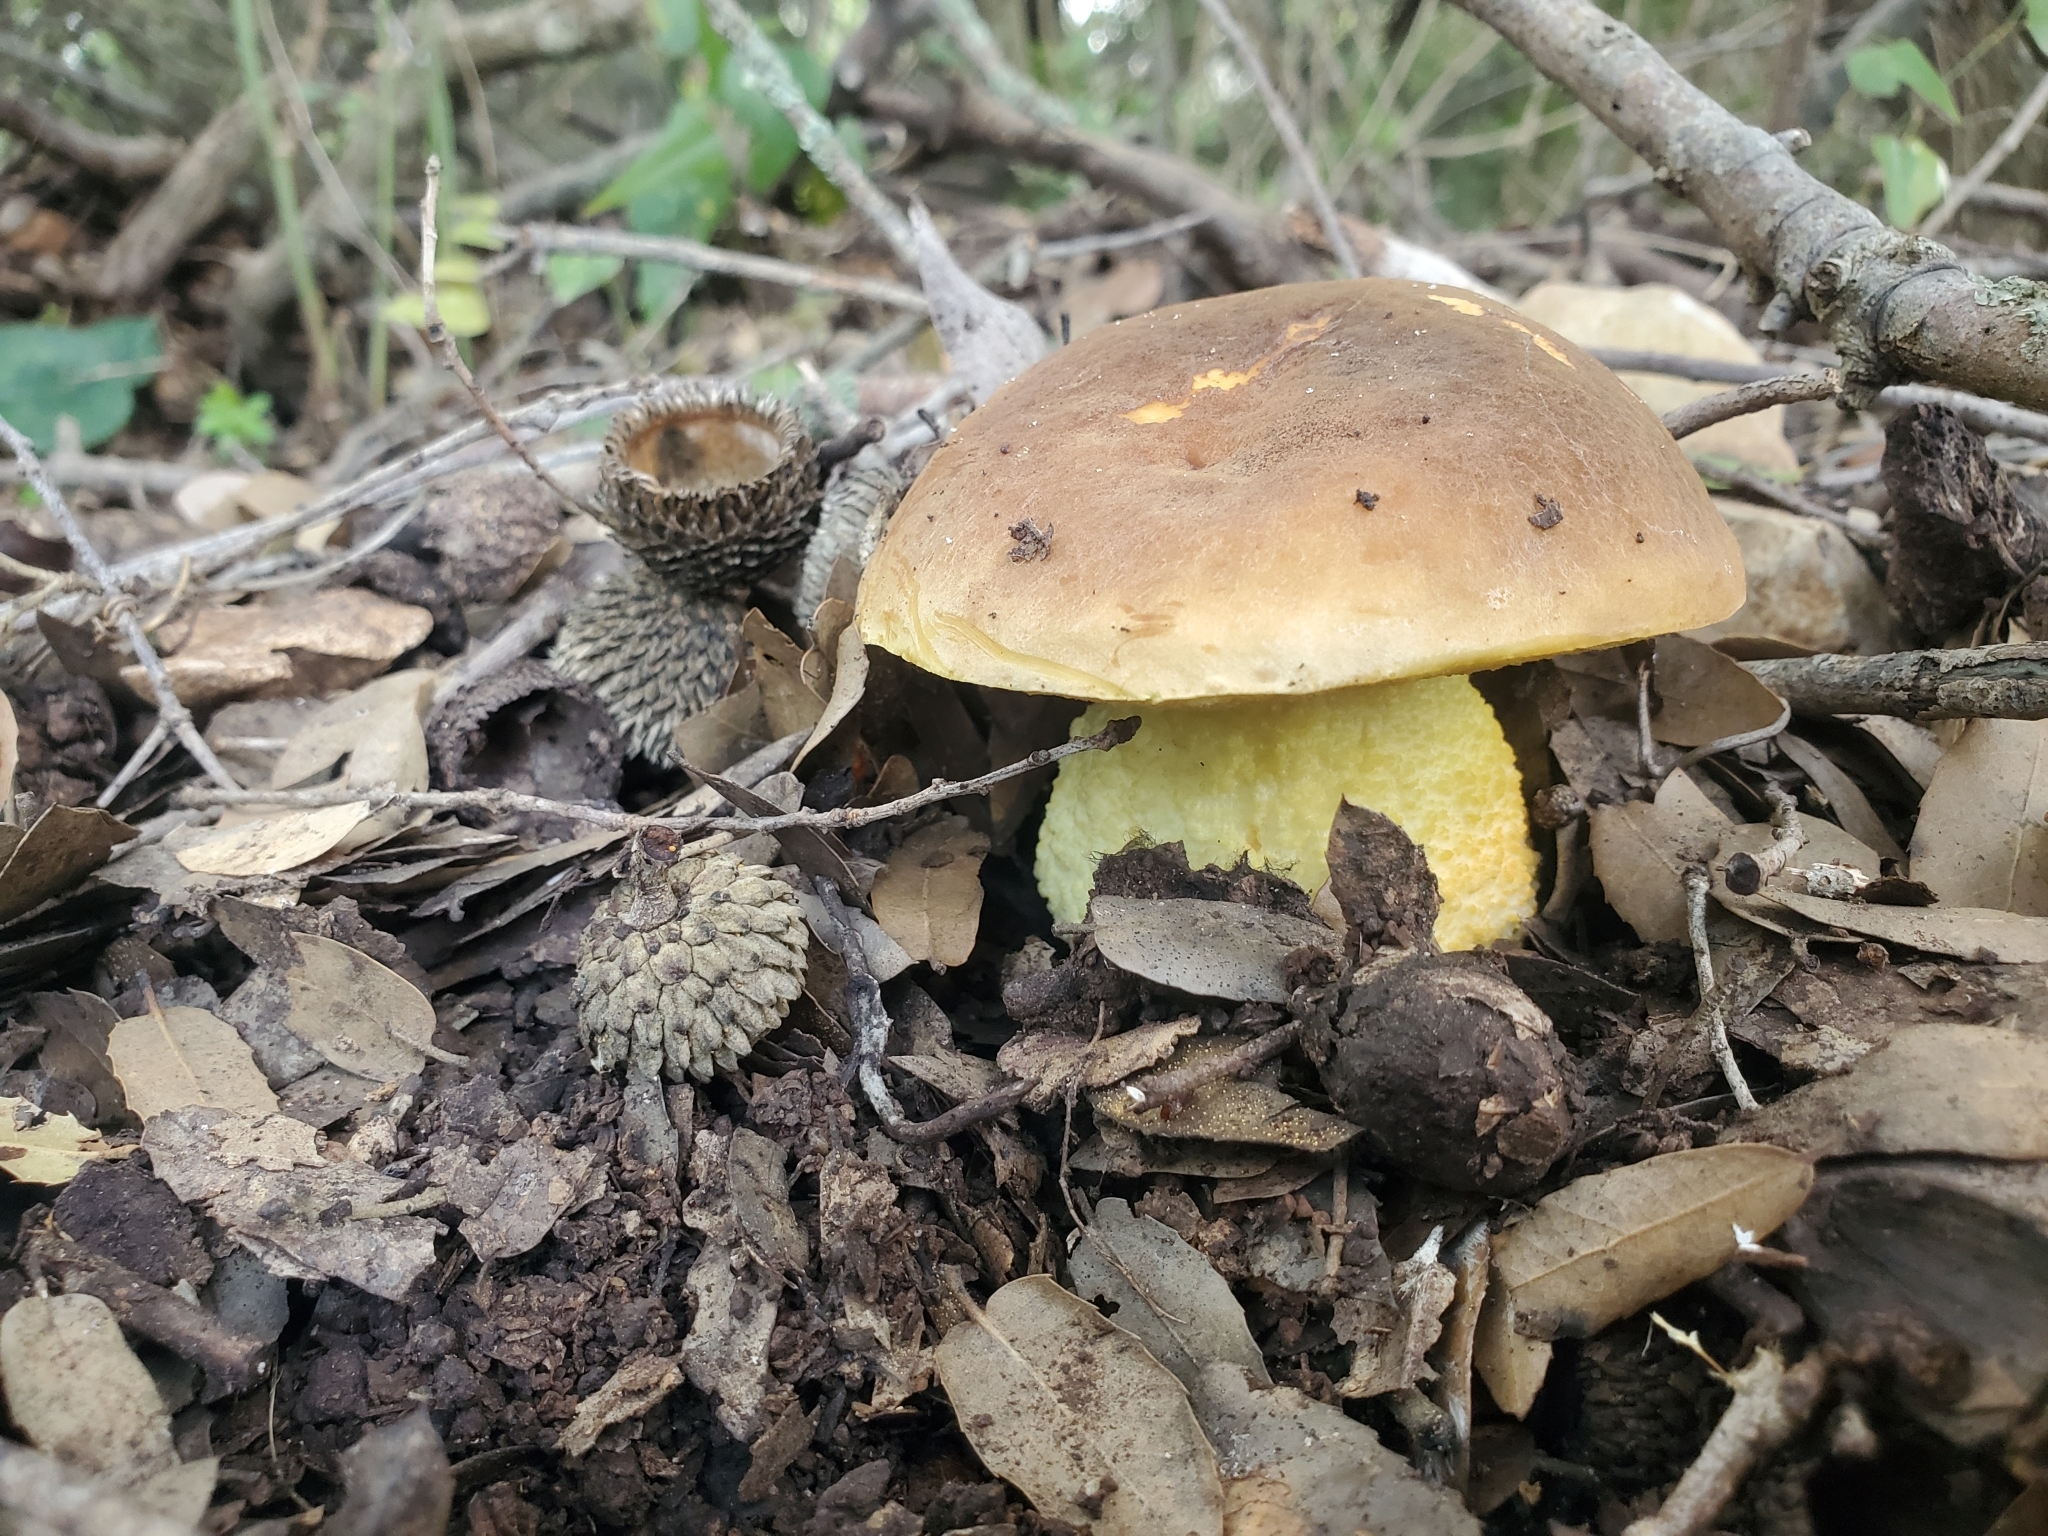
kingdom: Fungi
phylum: Basidiomycota
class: Agaricomycetes
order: Boletales
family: Boletaceae
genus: Leccinellum
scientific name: Leccinellum lepidum
